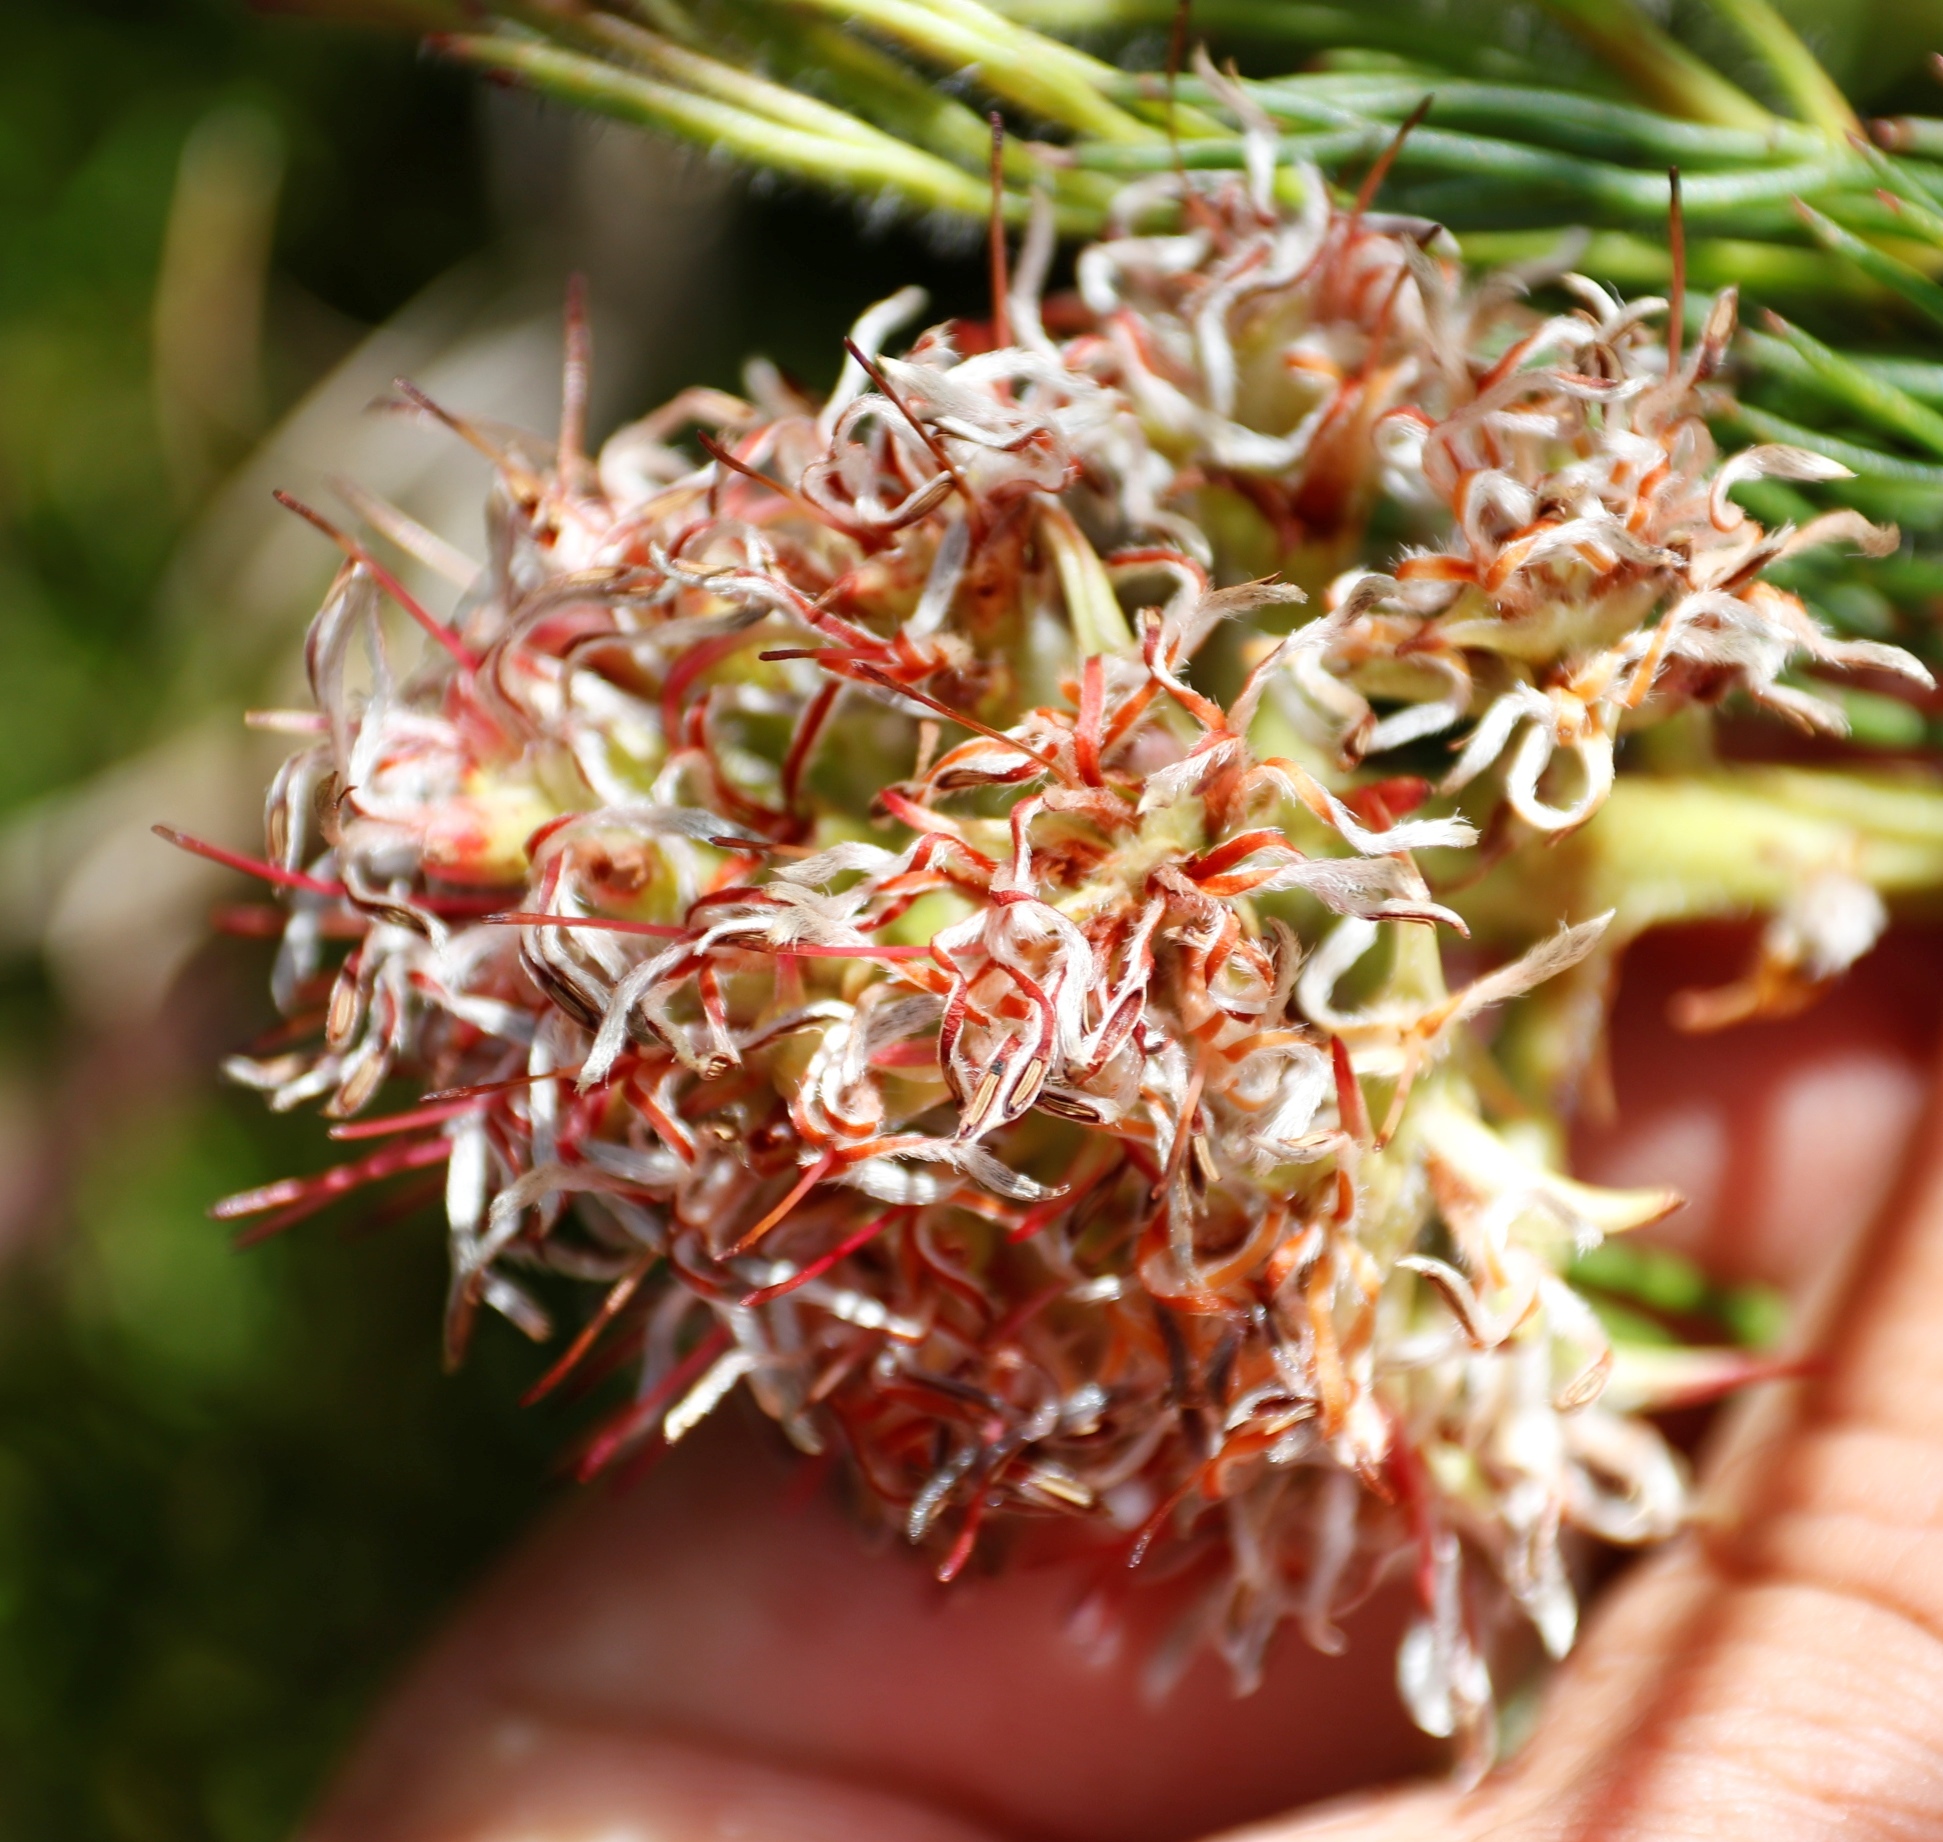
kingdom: Plantae
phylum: Tracheophyta
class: Magnoliopsida
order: Proteales
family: Proteaceae
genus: Serruria
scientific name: Serruria collina
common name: Lost spiderhead
